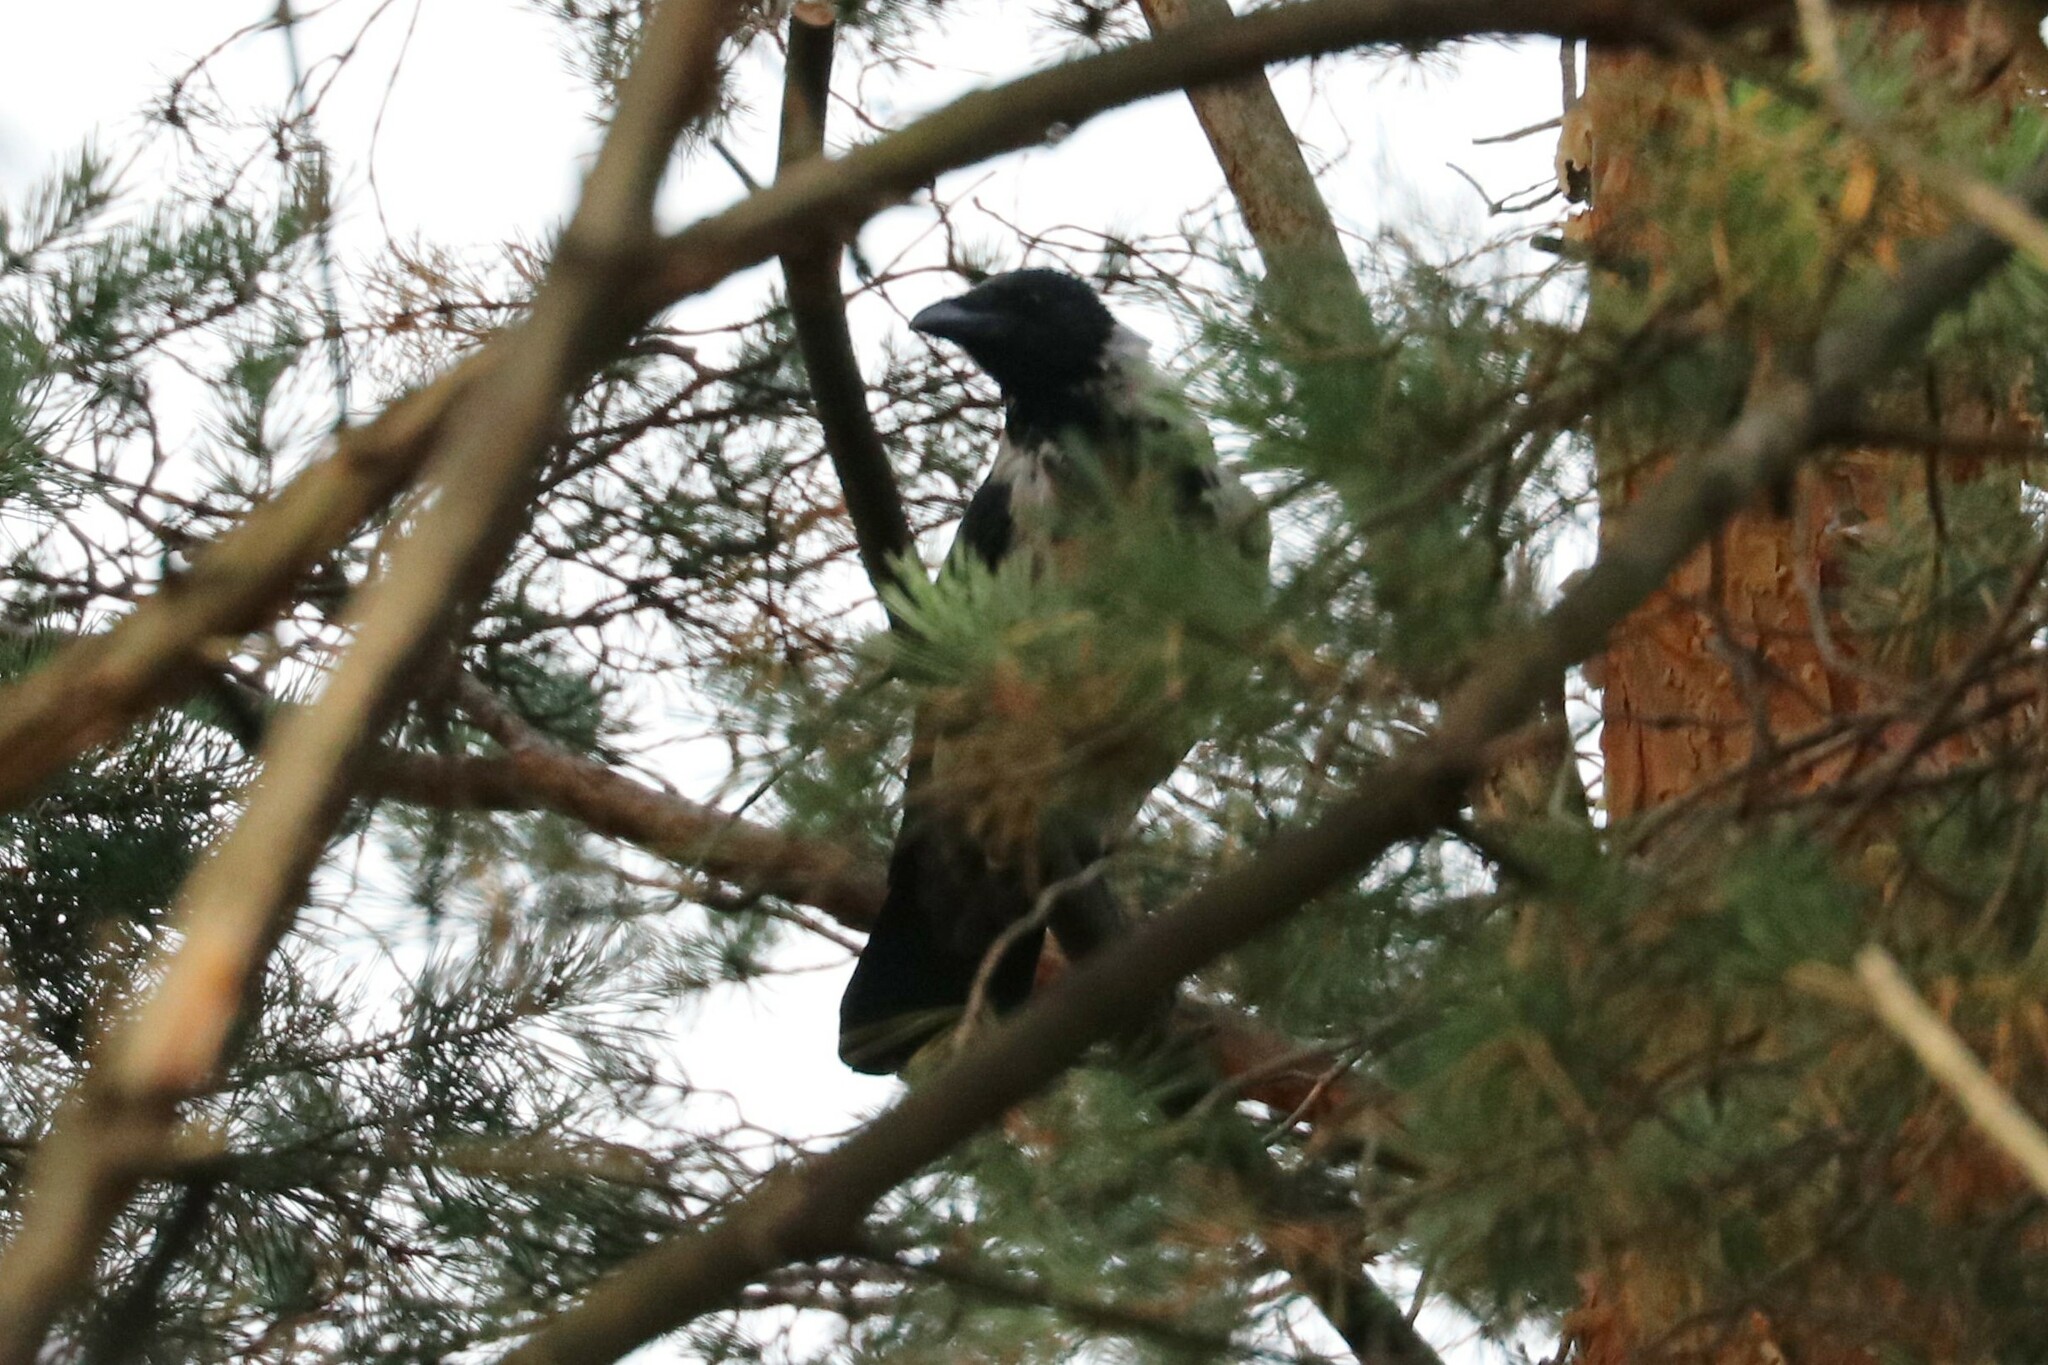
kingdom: Animalia
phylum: Chordata
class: Aves
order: Passeriformes
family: Corvidae
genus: Corvus
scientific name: Corvus cornix
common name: Hooded crow
